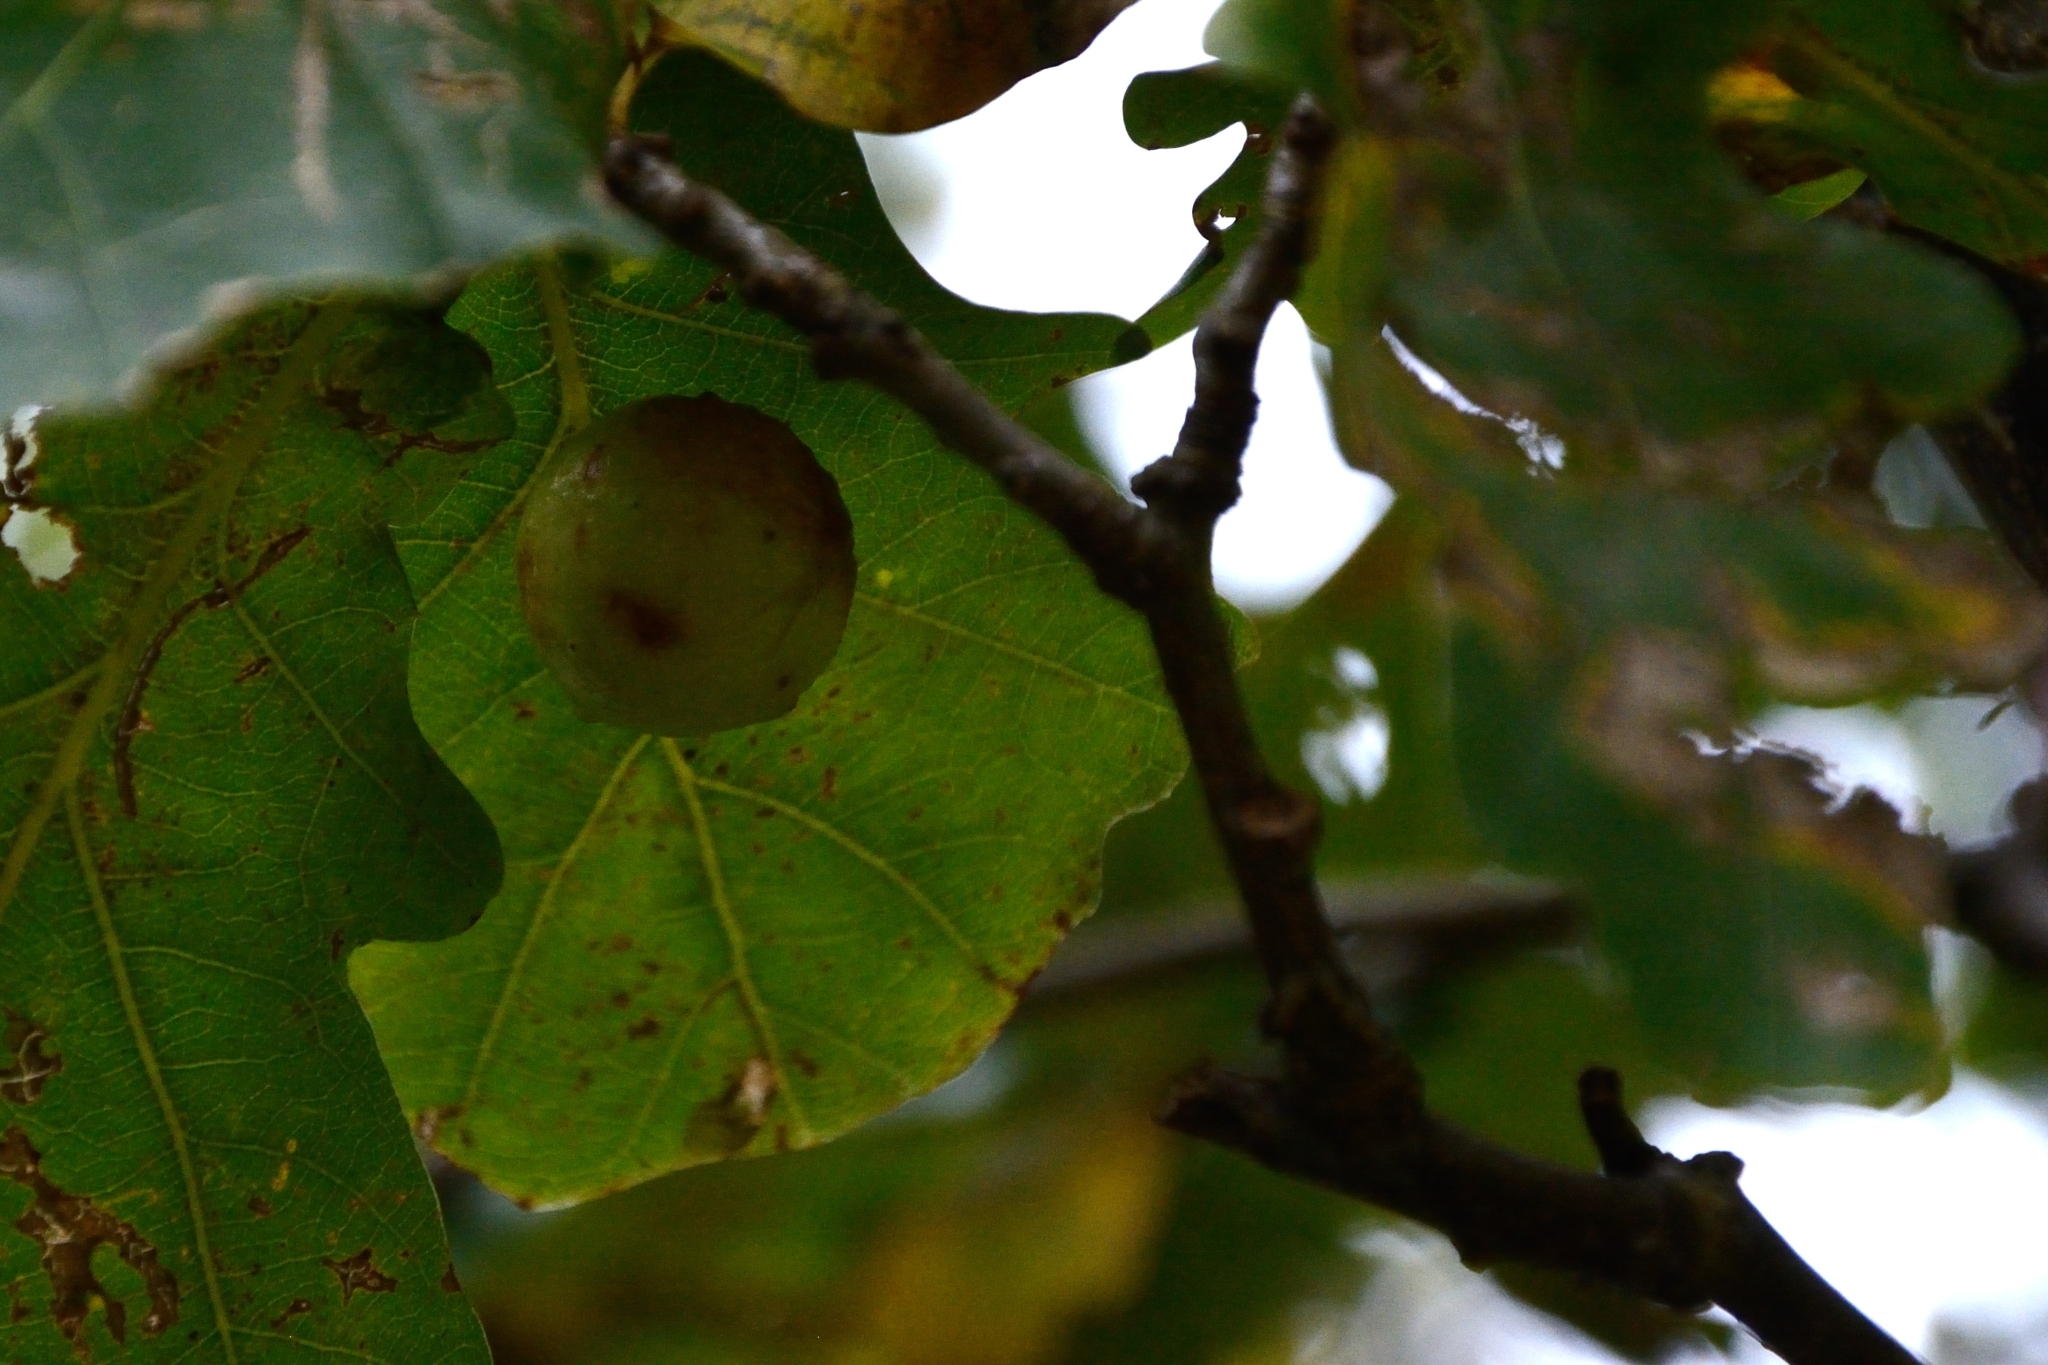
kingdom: Animalia
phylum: Arthropoda
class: Insecta
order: Hymenoptera
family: Cynipidae
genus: Cynips
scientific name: Cynips quercusfolii
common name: Cherry gall
